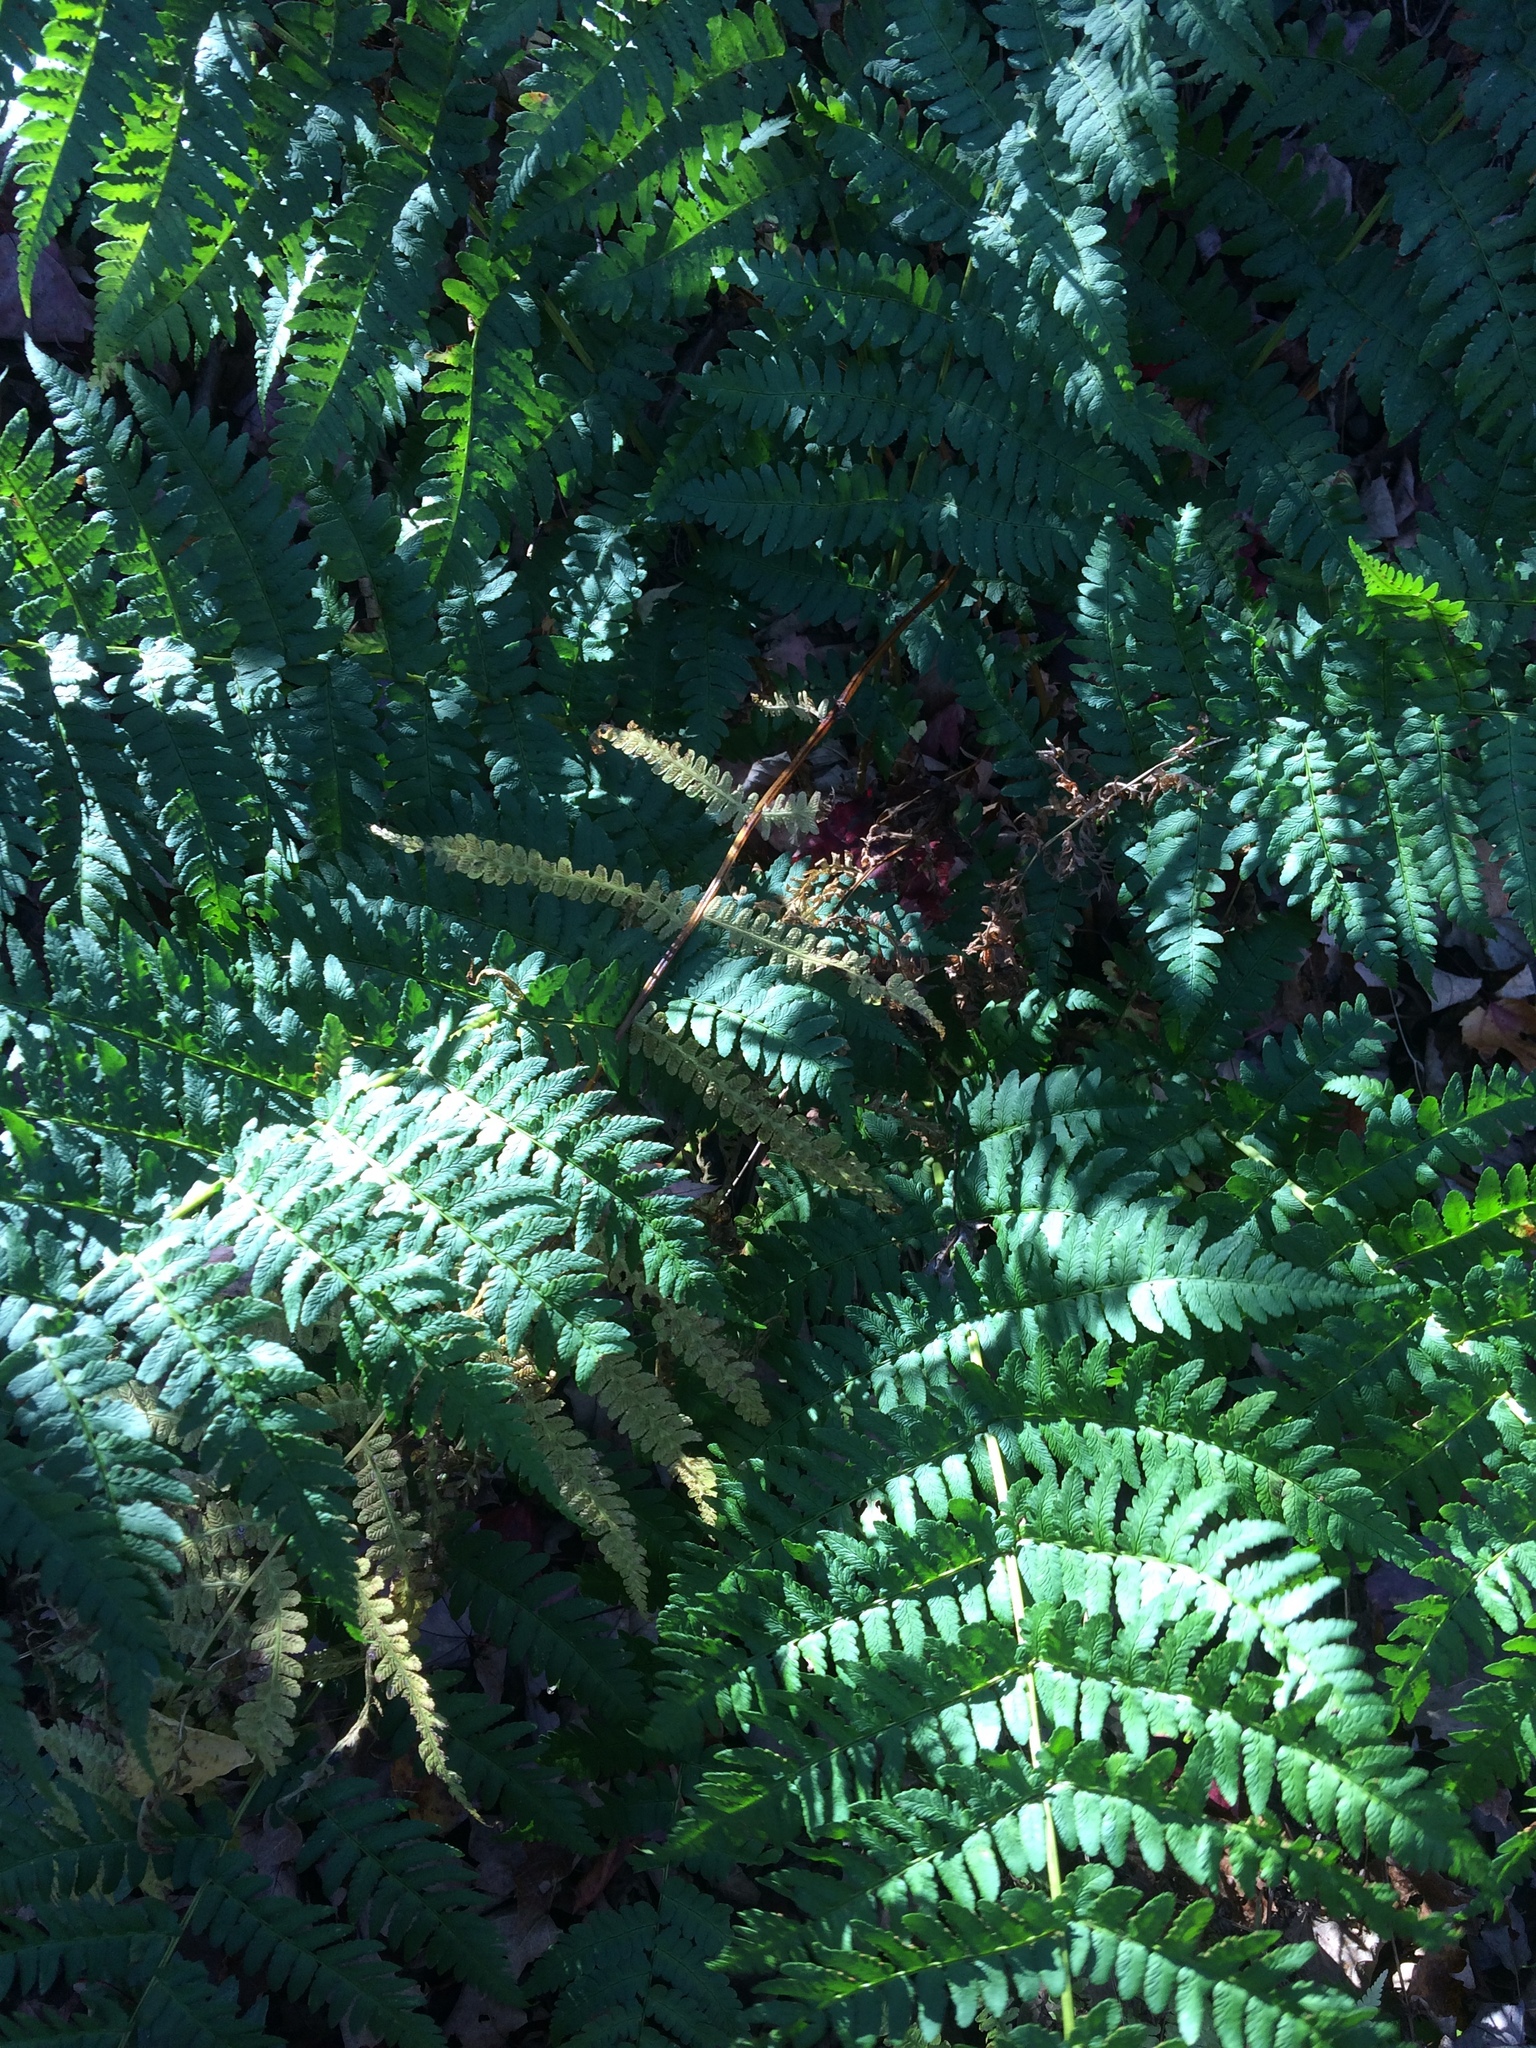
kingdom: Plantae
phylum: Tracheophyta
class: Polypodiopsida
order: Polypodiales
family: Dryopteridaceae
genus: Dryopteris
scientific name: Dryopteris marginalis
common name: Marginal wood fern
